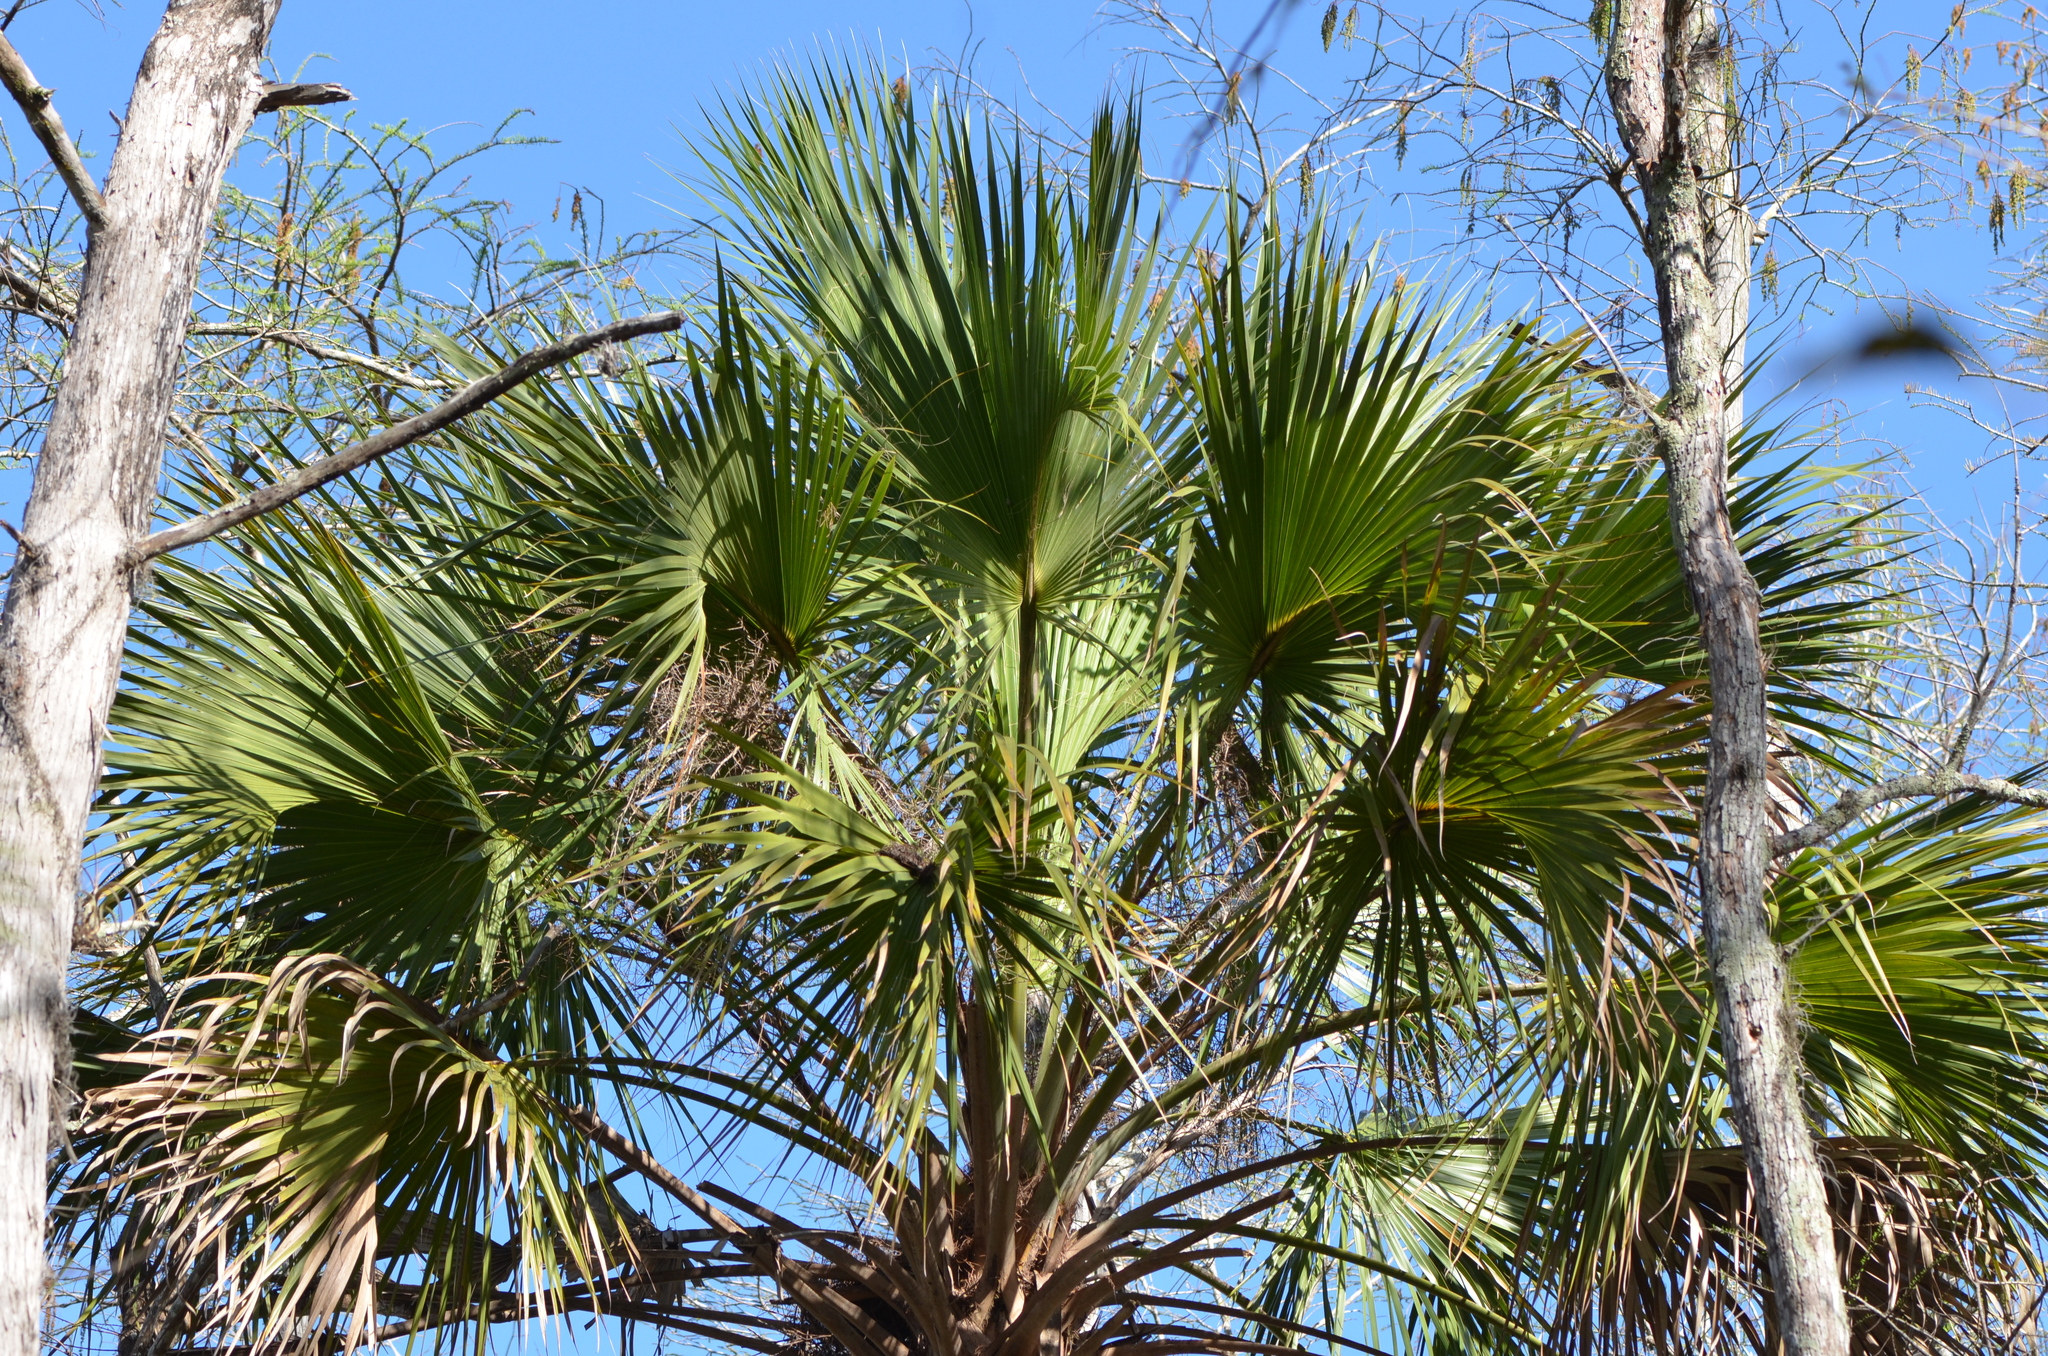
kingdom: Plantae
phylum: Tracheophyta
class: Liliopsida
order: Arecales
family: Arecaceae
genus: Sabal
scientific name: Sabal palmetto
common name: Blue palmetto
